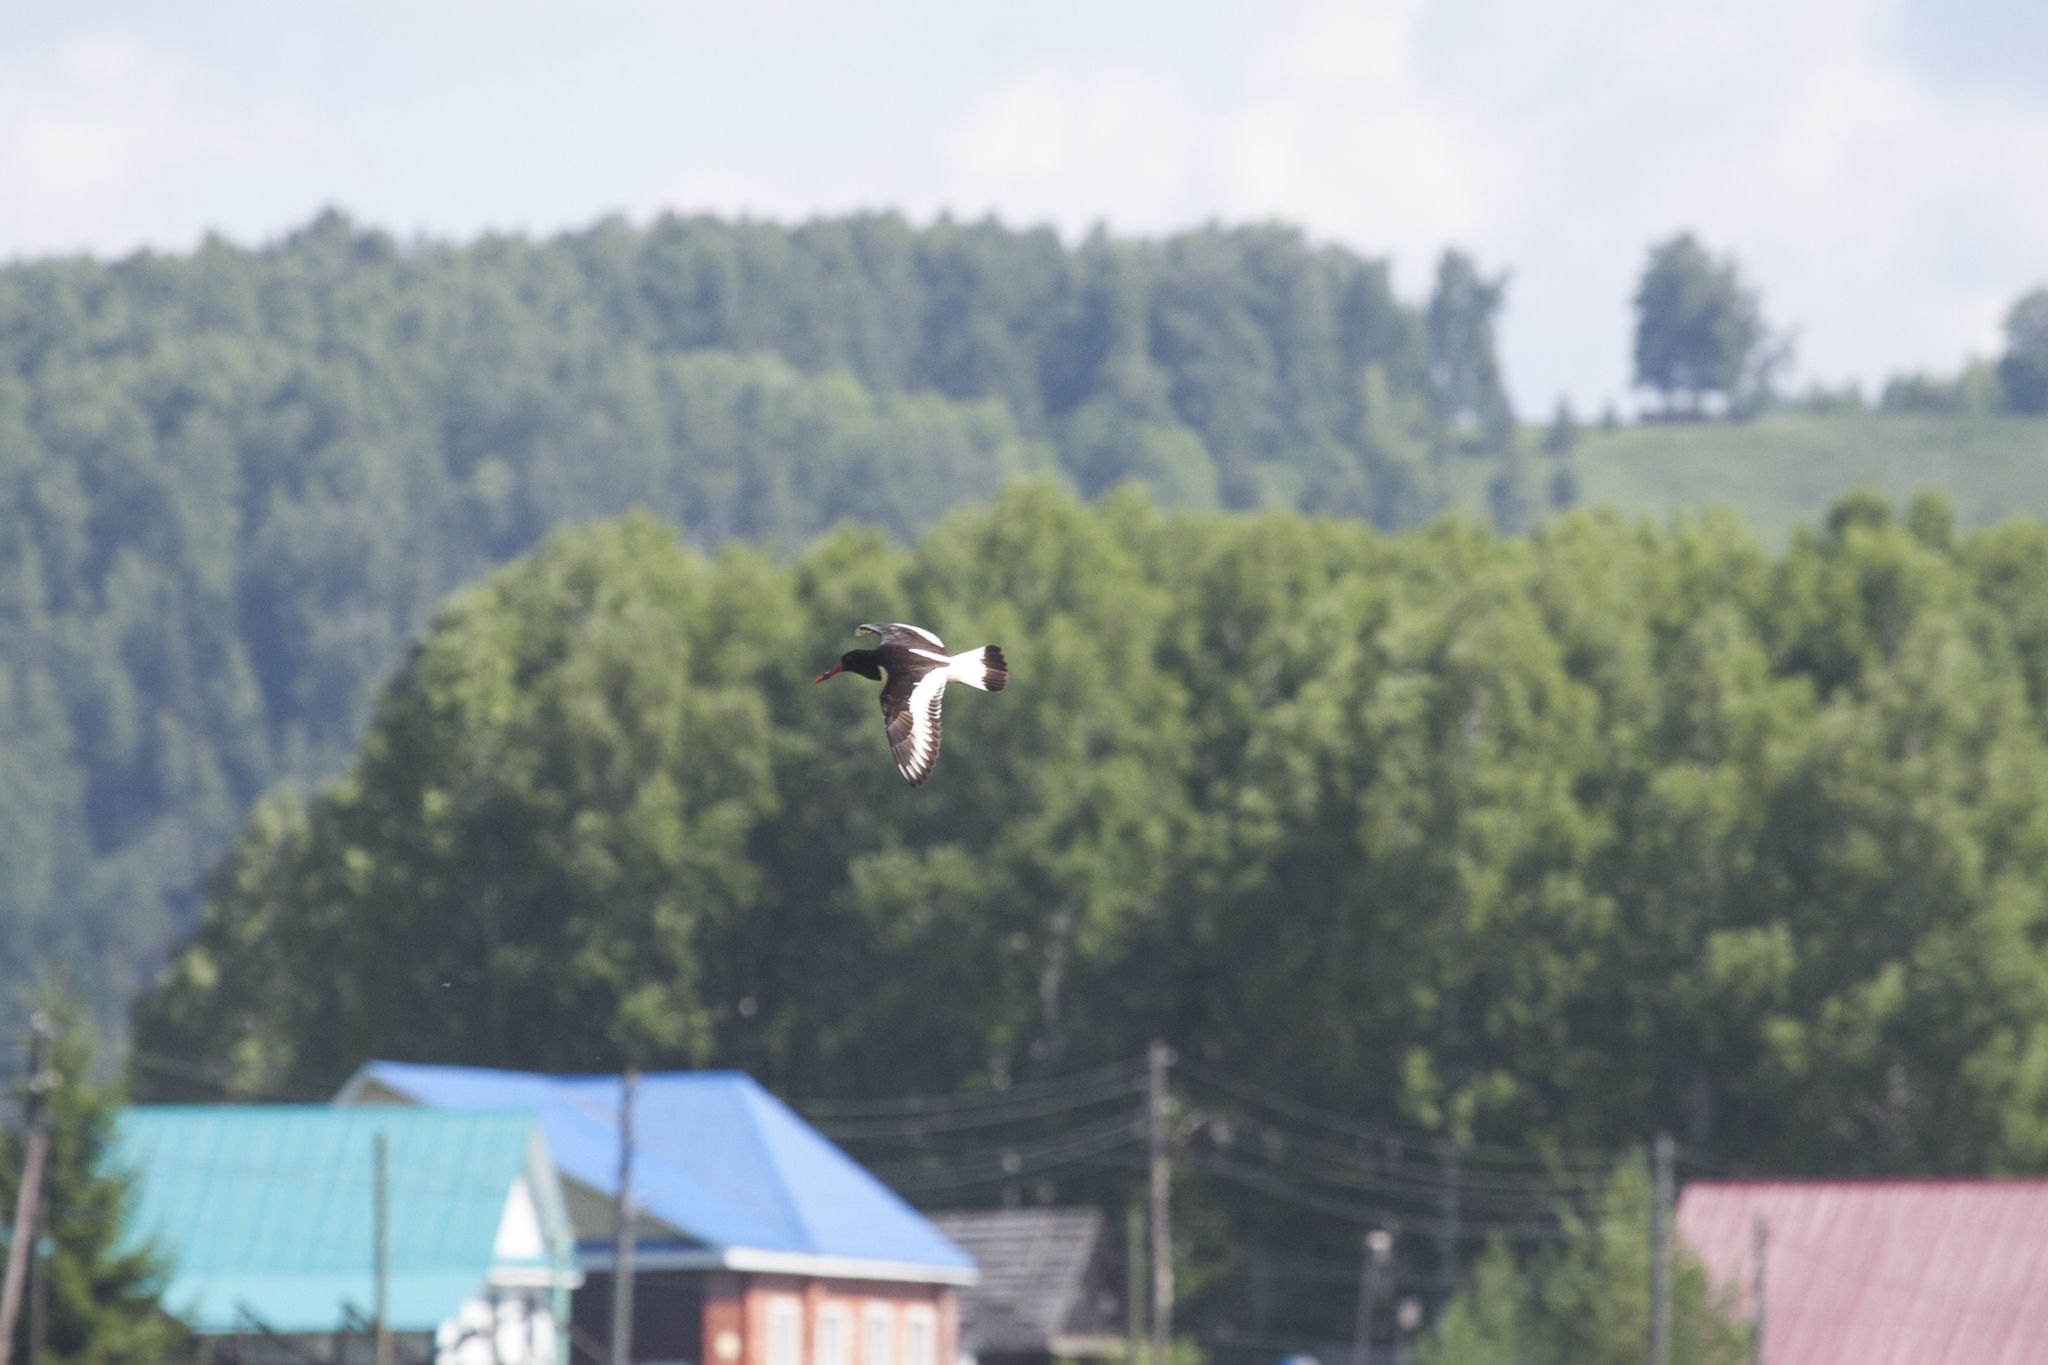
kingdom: Animalia
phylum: Chordata
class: Aves
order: Charadriiformes
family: Haematopodidae
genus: Haematopus
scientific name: Haematopus ostralegus
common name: Eurasian oystercatcher
